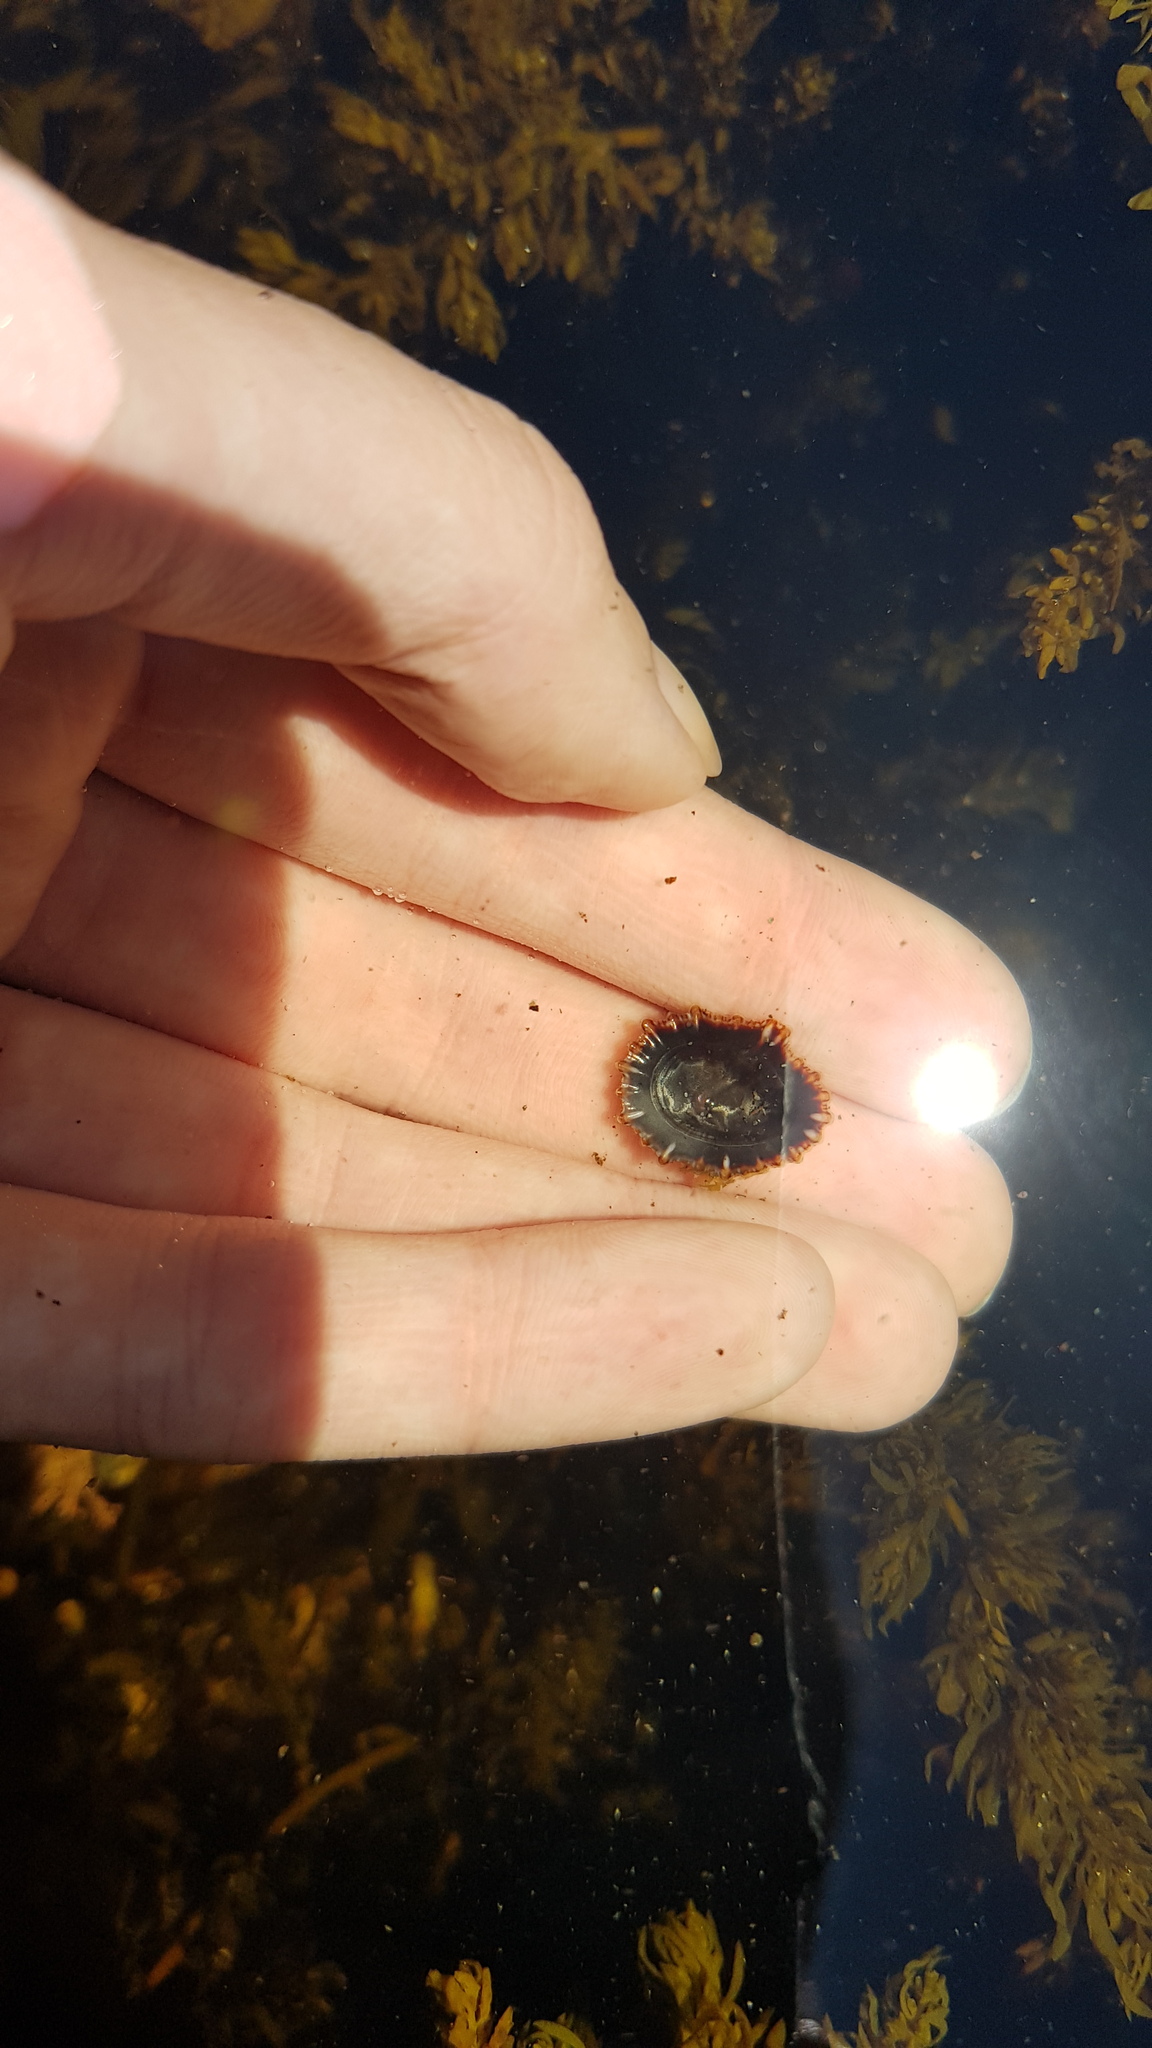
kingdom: Animalia
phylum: Mollusca
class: Gastropoda
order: Siphonariida
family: Siphonariidae
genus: Siphonaria
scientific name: Siphonaria denticulata
